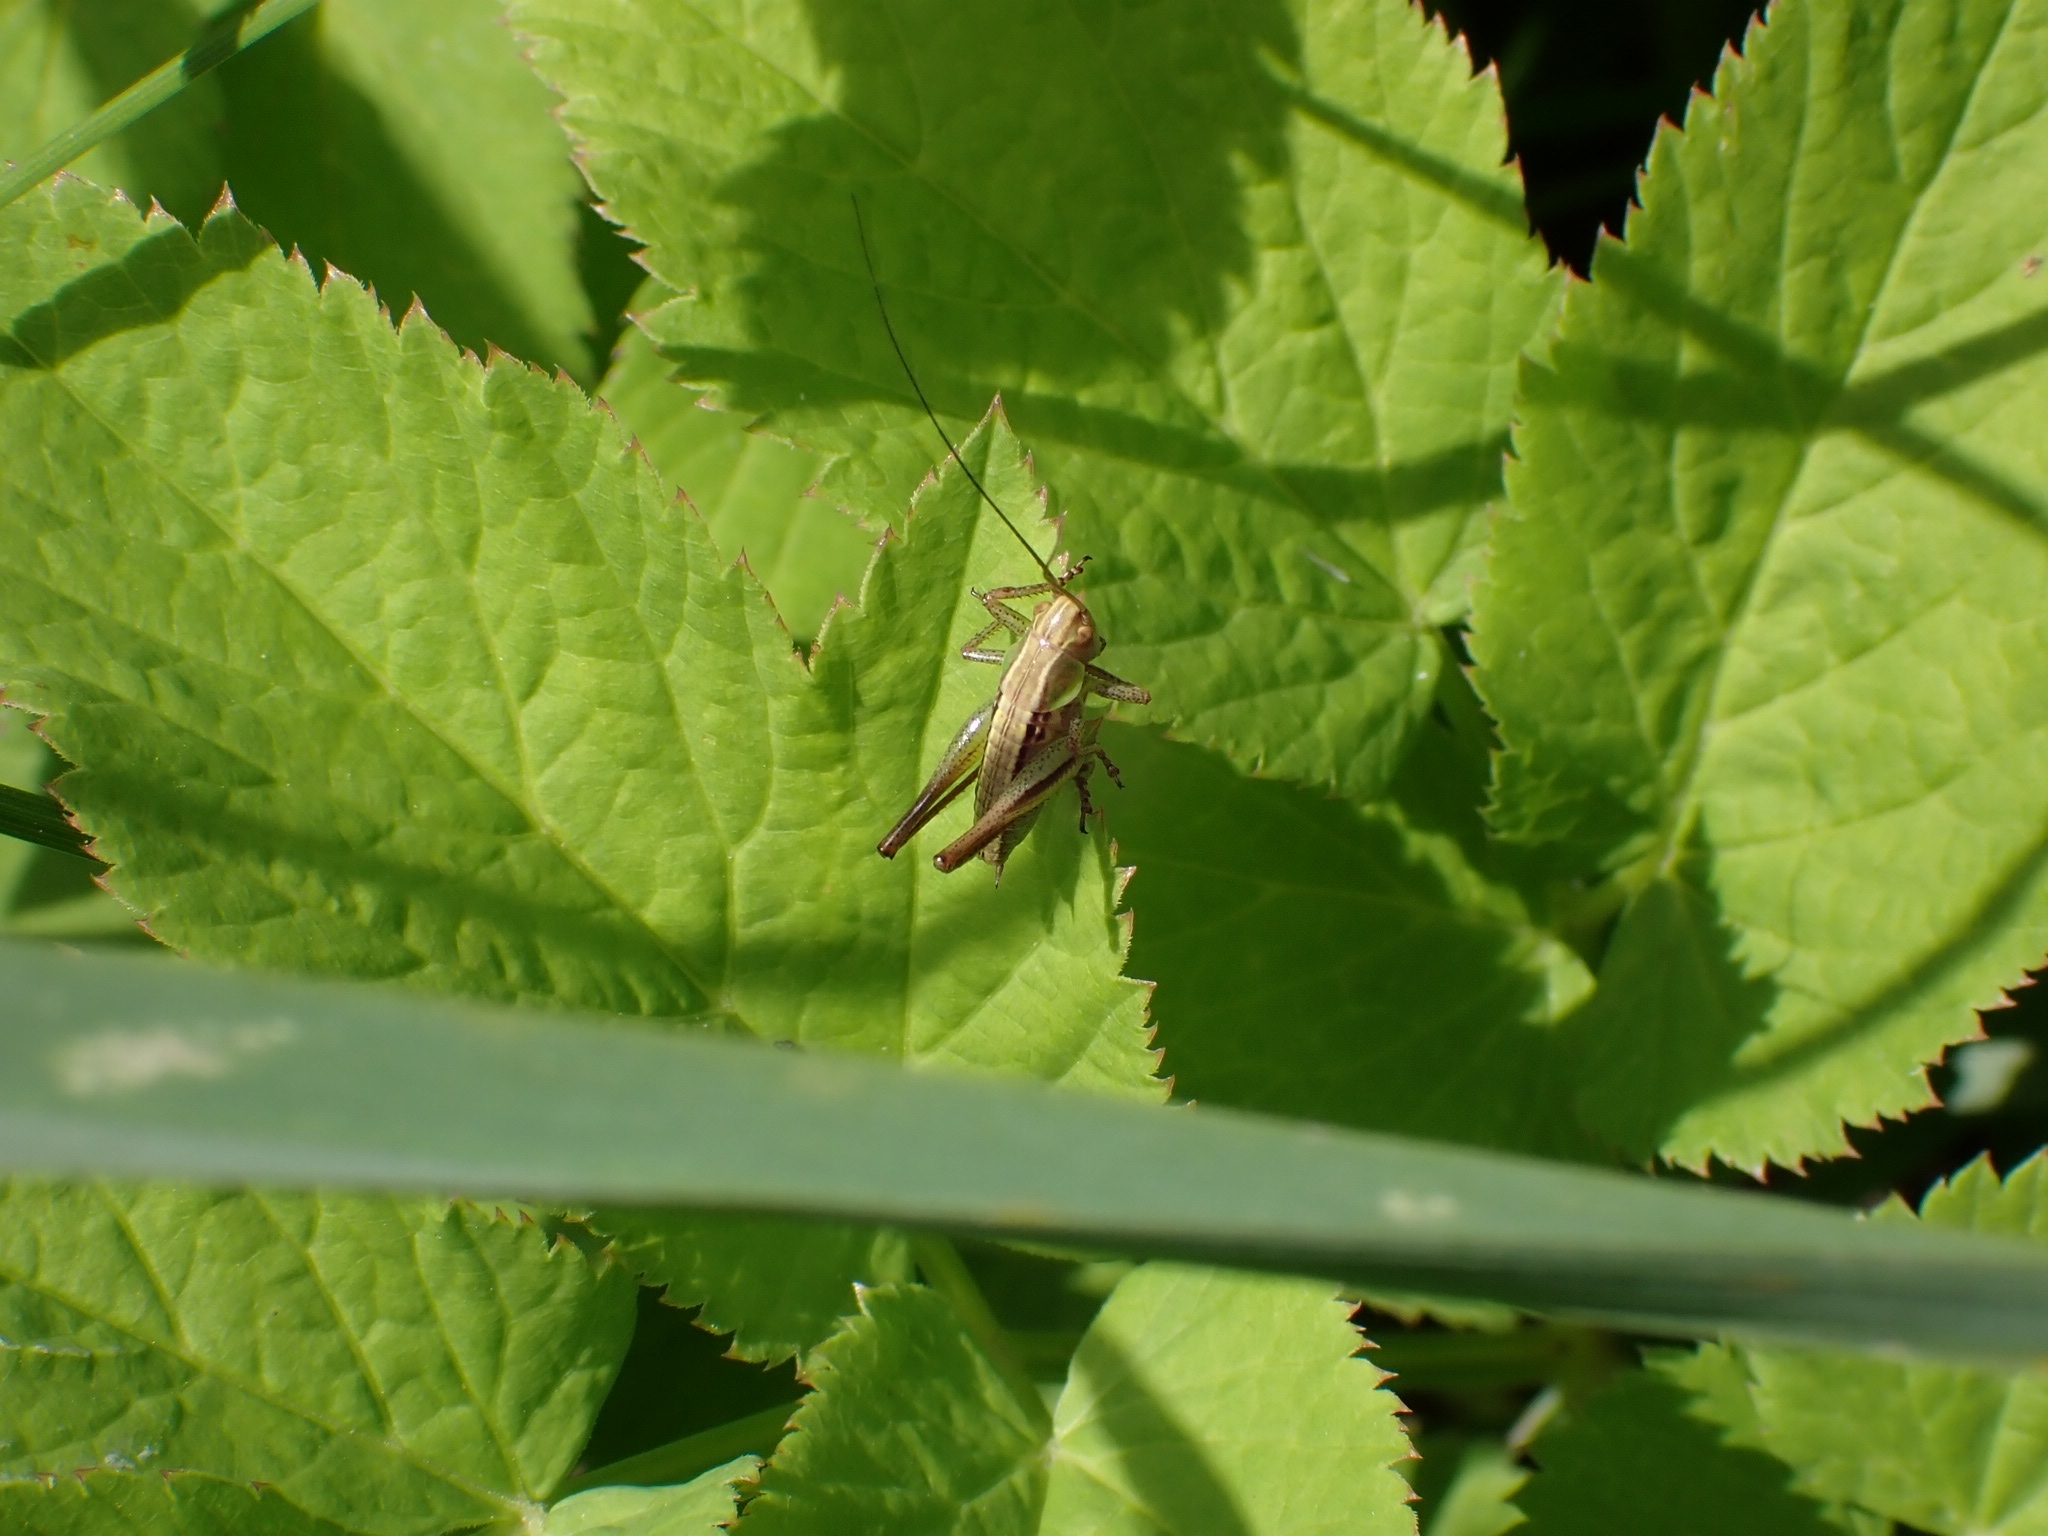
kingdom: Animalia
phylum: Arthropoda
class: Insecta
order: Orthoptera
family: Tettigoniidae
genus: Roeseliana
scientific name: Roeseliana roeselii
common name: Roesel's bush cricket
